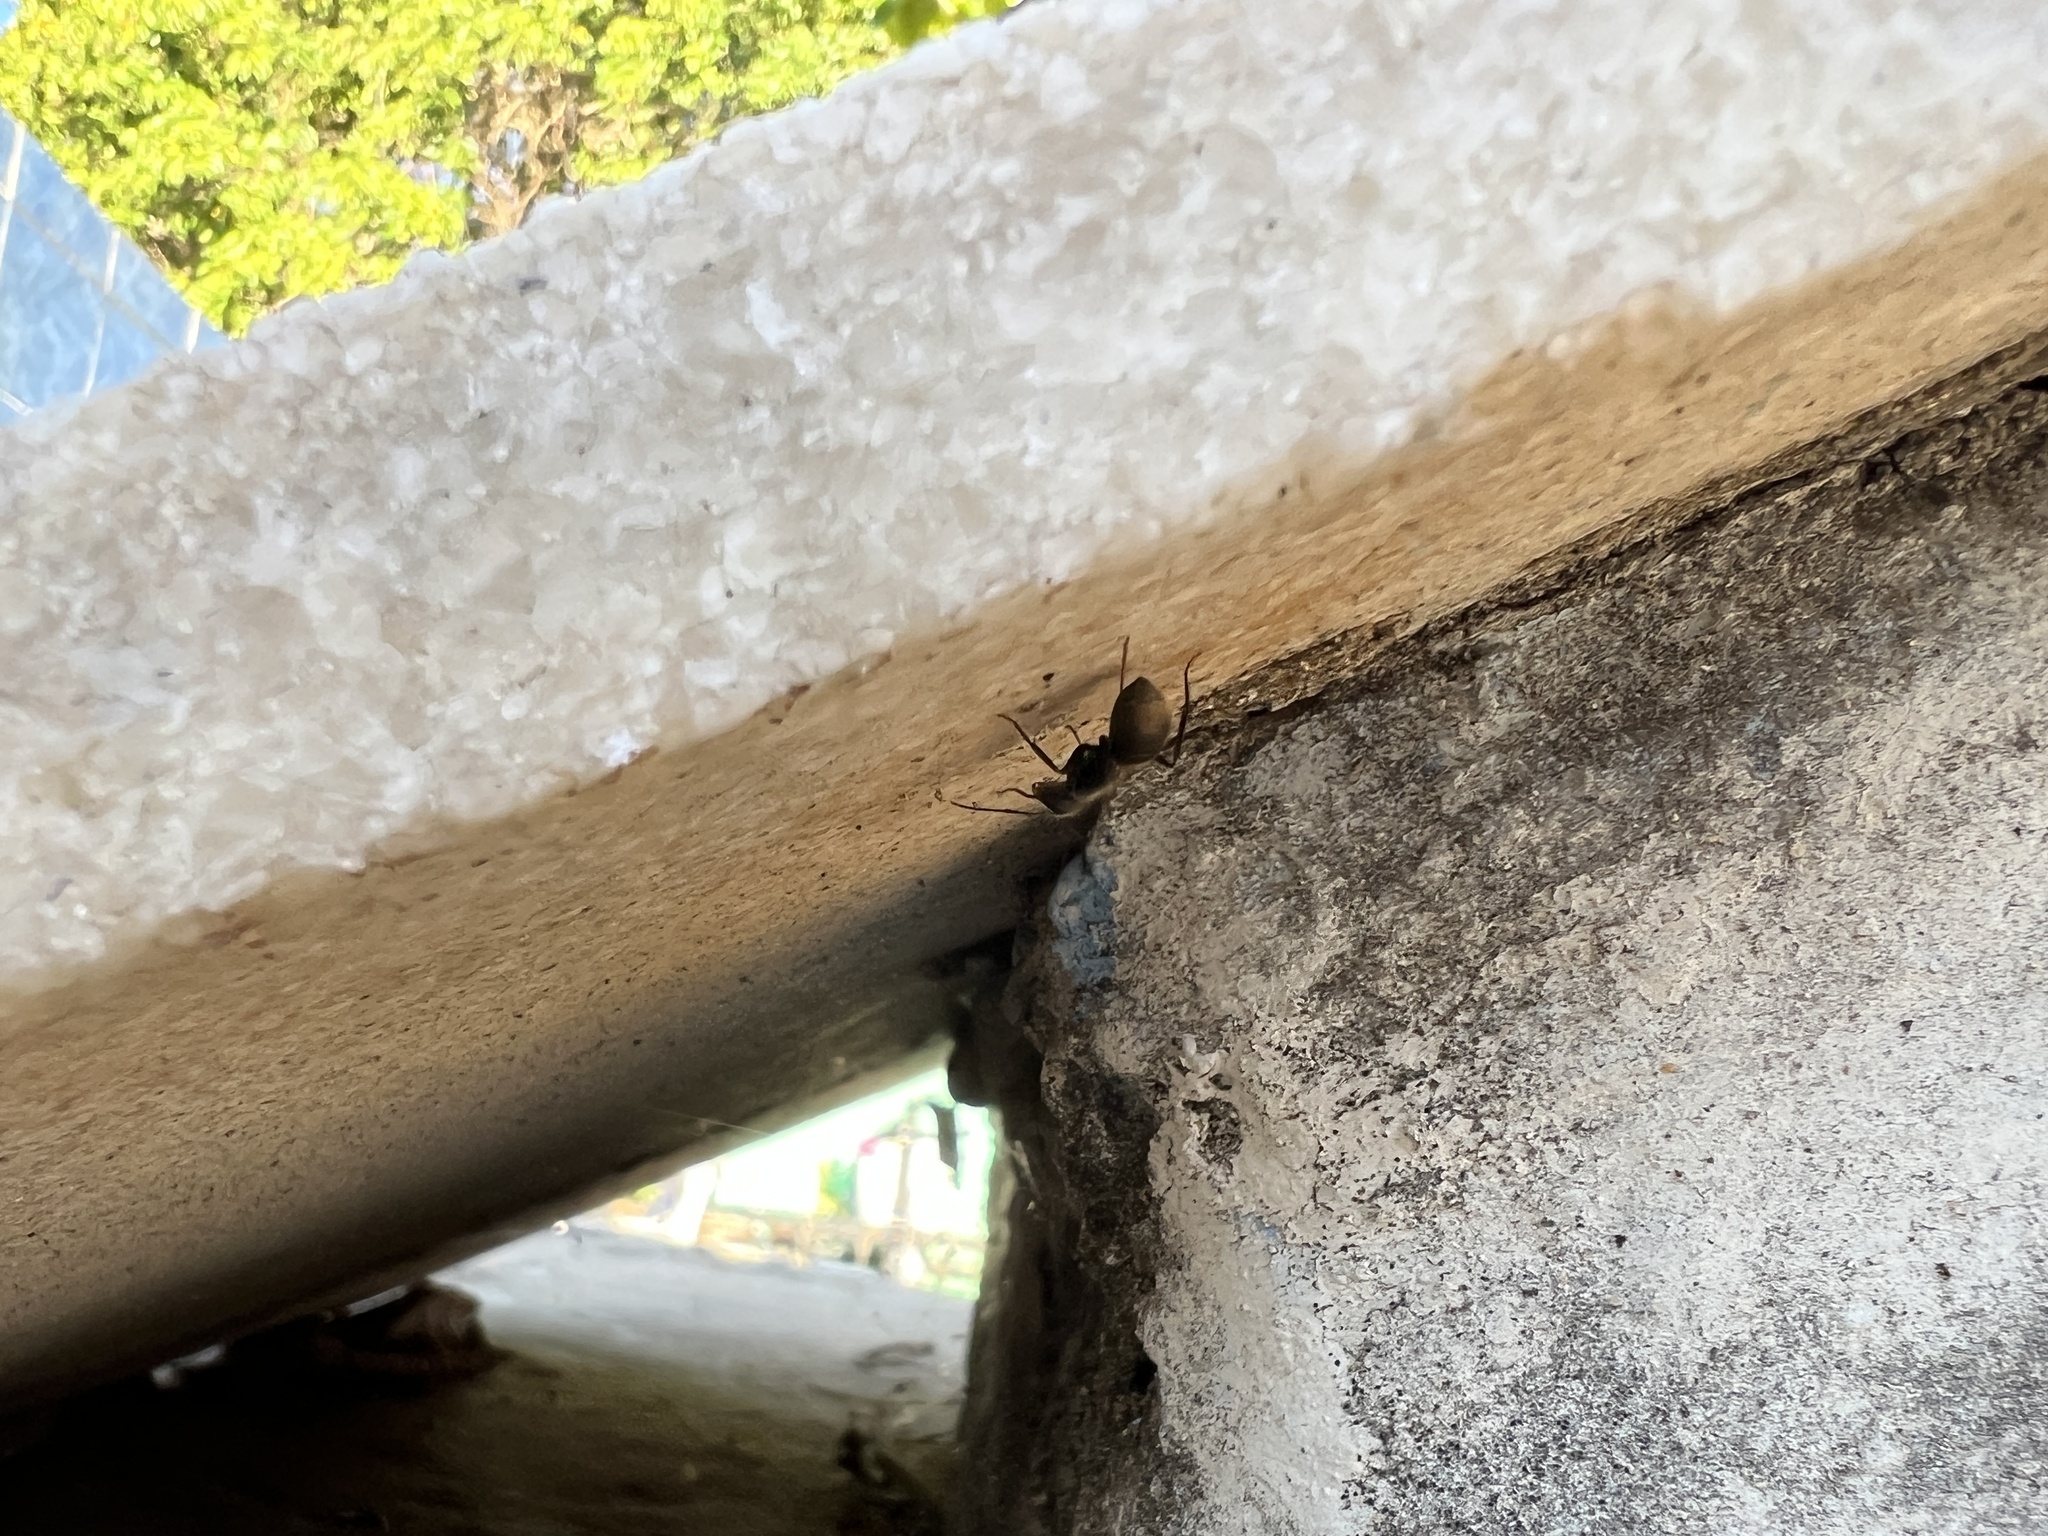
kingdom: Animalia
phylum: Arthropoda
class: Insecta
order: Hymenoptera
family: Formicidae
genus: Camponotus
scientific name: Camponotus mus
